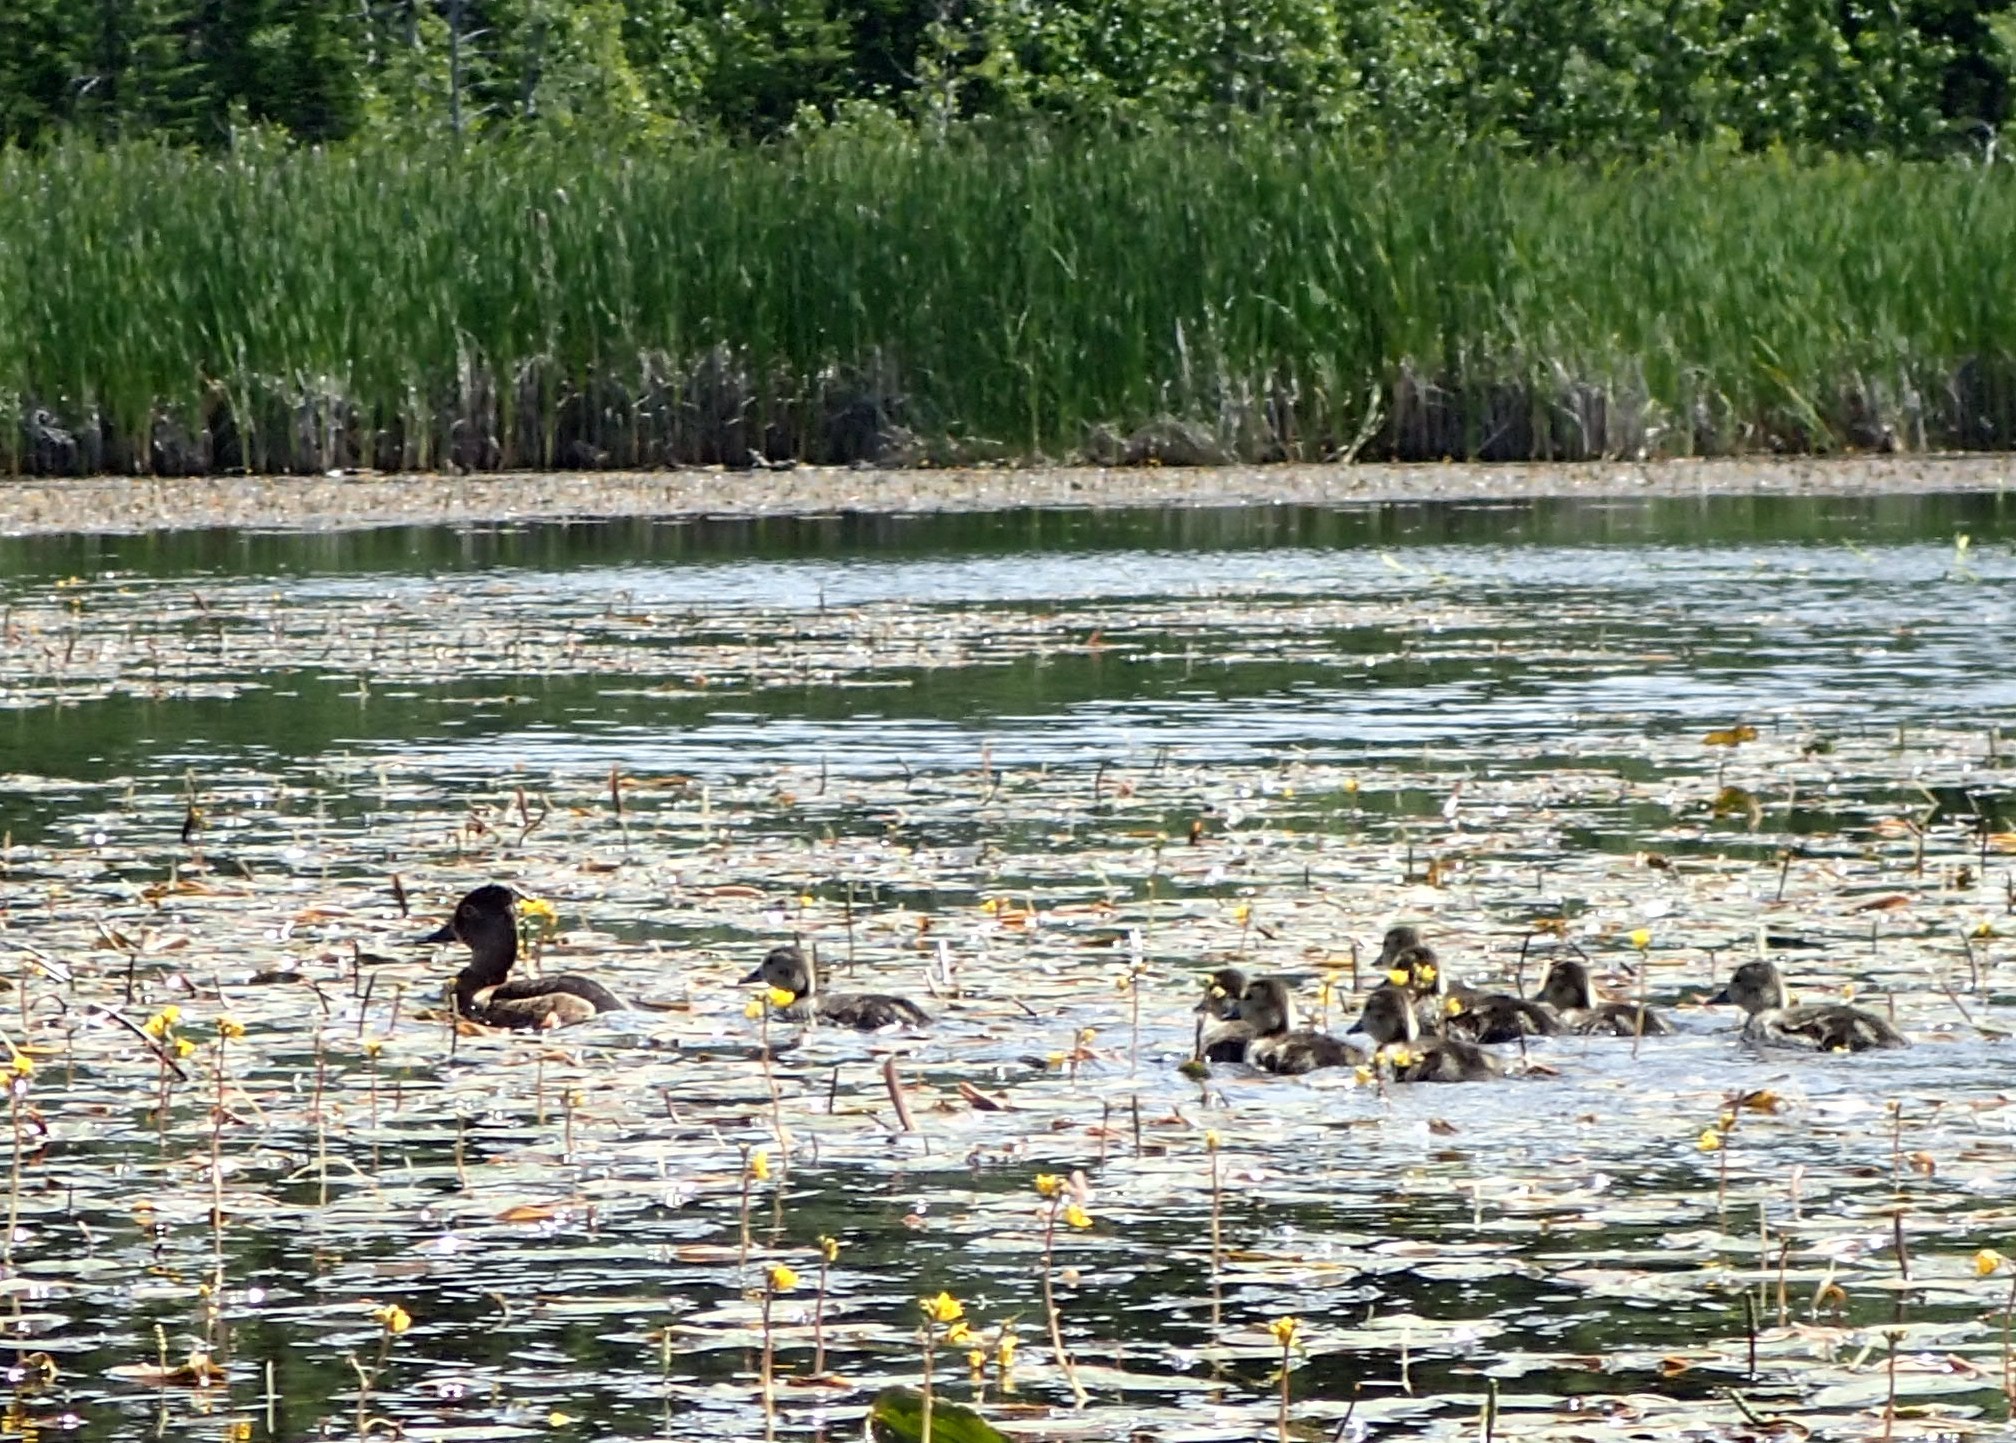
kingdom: Animalia
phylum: Chordata
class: Aves
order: Anseriformes
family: Anatidae
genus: Aythya
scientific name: Aythya collaris
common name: Ring-necked duck
